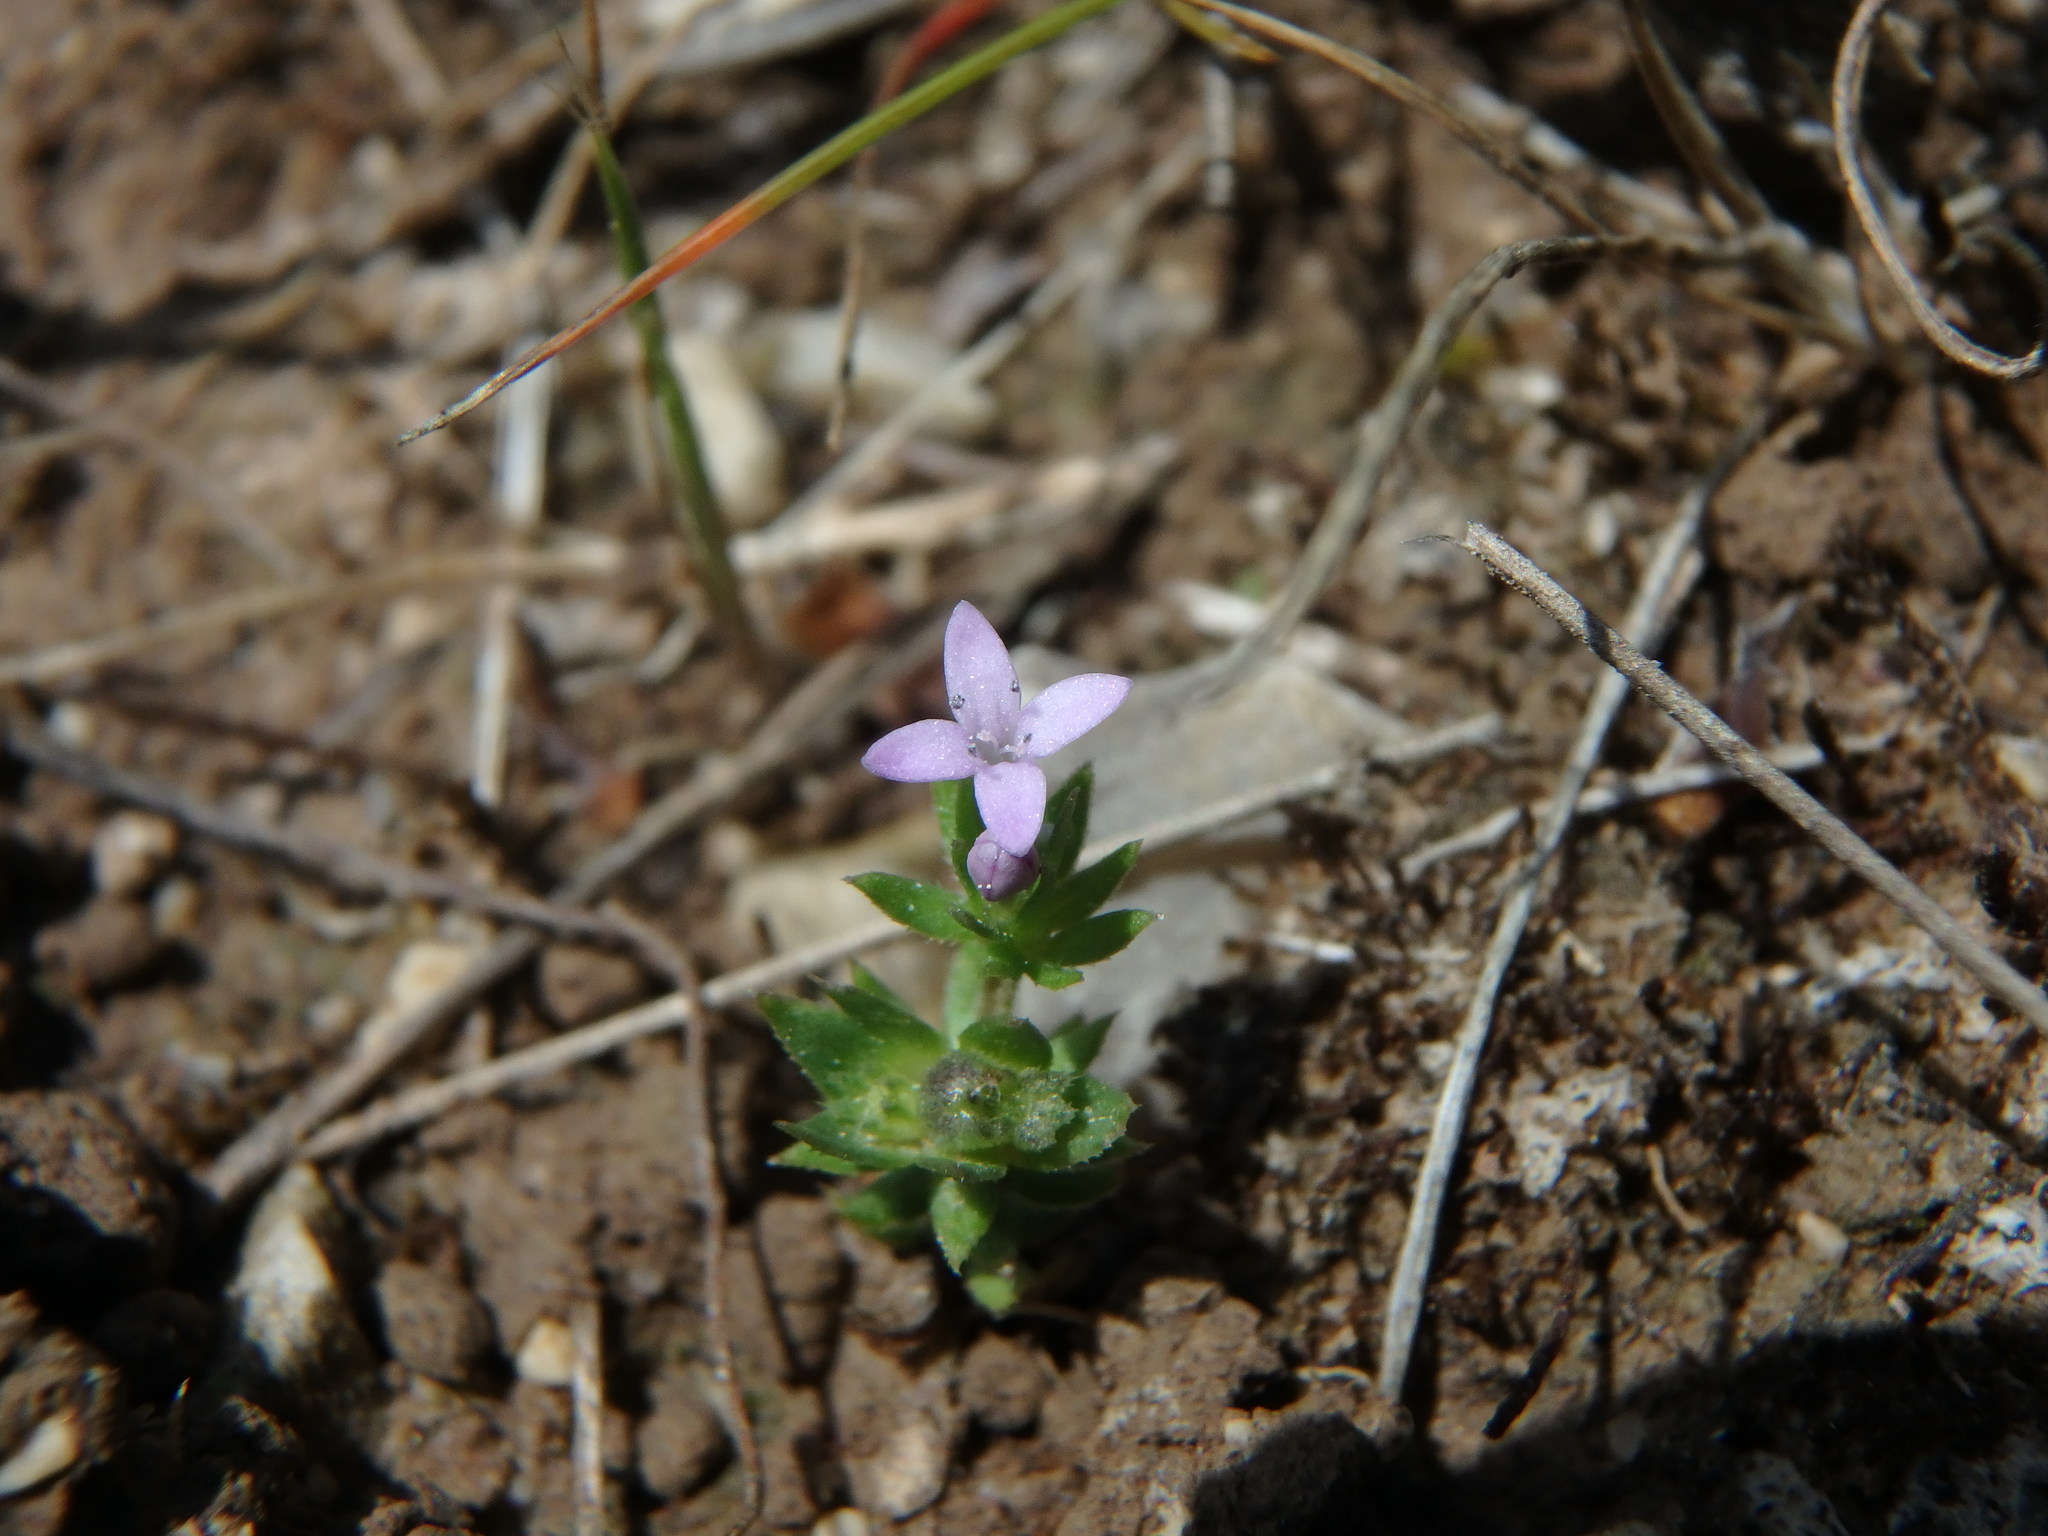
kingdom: Plantae
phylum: Tracheophyta
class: Magnoliopsida
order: Gentianales
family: Rubiaceae
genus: Sherardia
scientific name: Sherardia arvensis
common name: Field madder
